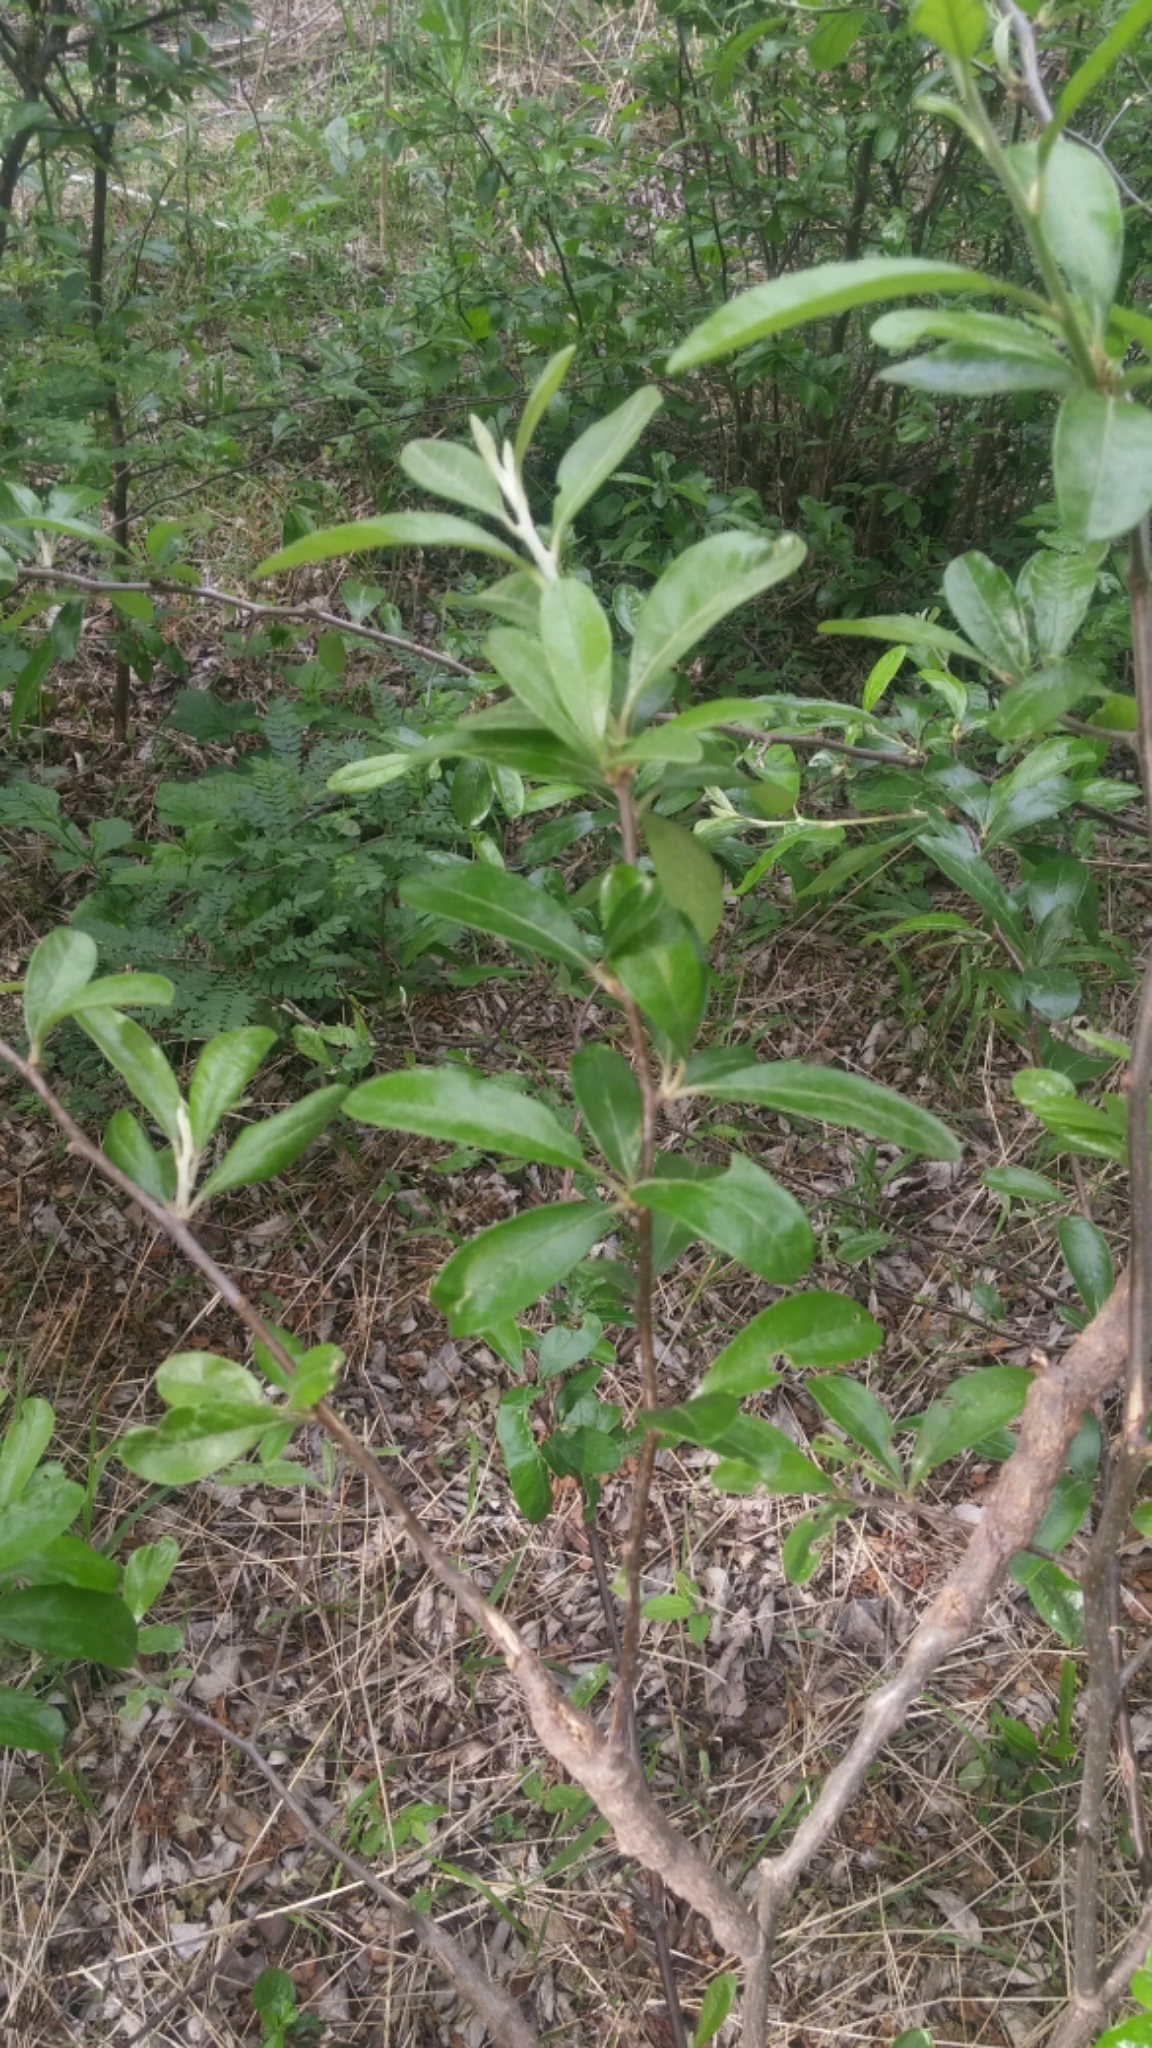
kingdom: Plantae
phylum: Tracheophyta
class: Magnoliopsida
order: Ericales
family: Sapotaceae
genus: Sideroxylon
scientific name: Sideroxylon lanuginosum
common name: Chittamwood
